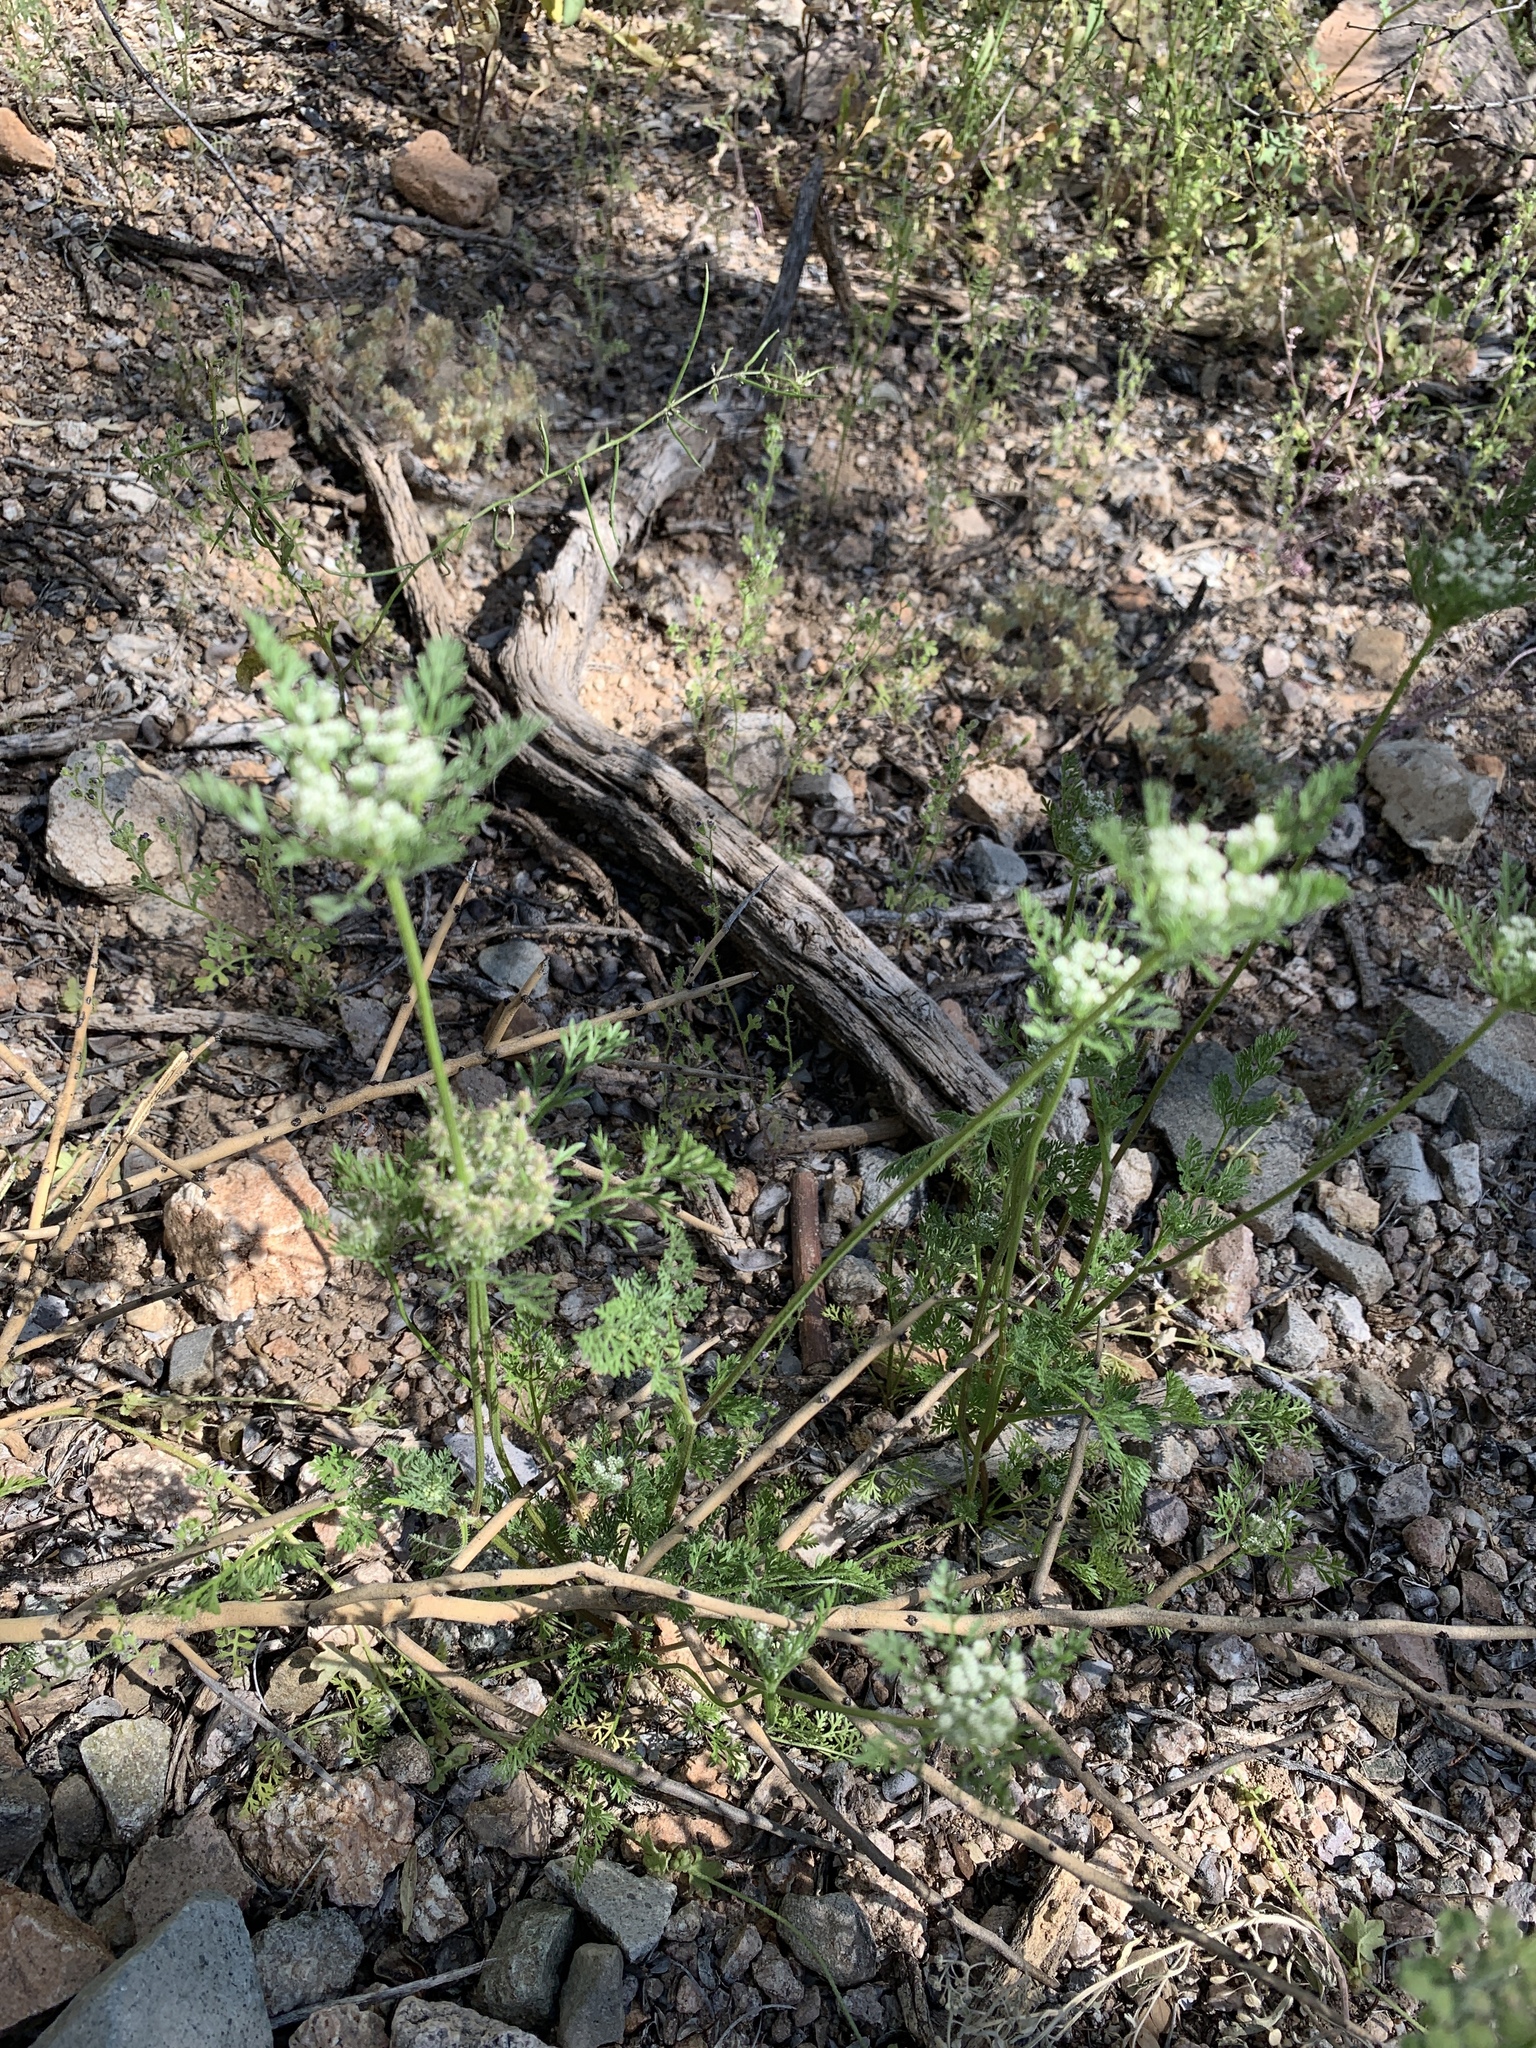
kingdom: Plantae
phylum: Tracheophyta
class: Magnoliopsida
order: Apiales
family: Apiaceae
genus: Daucus
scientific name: Daucus pusillus
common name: Southwest wild carrot
